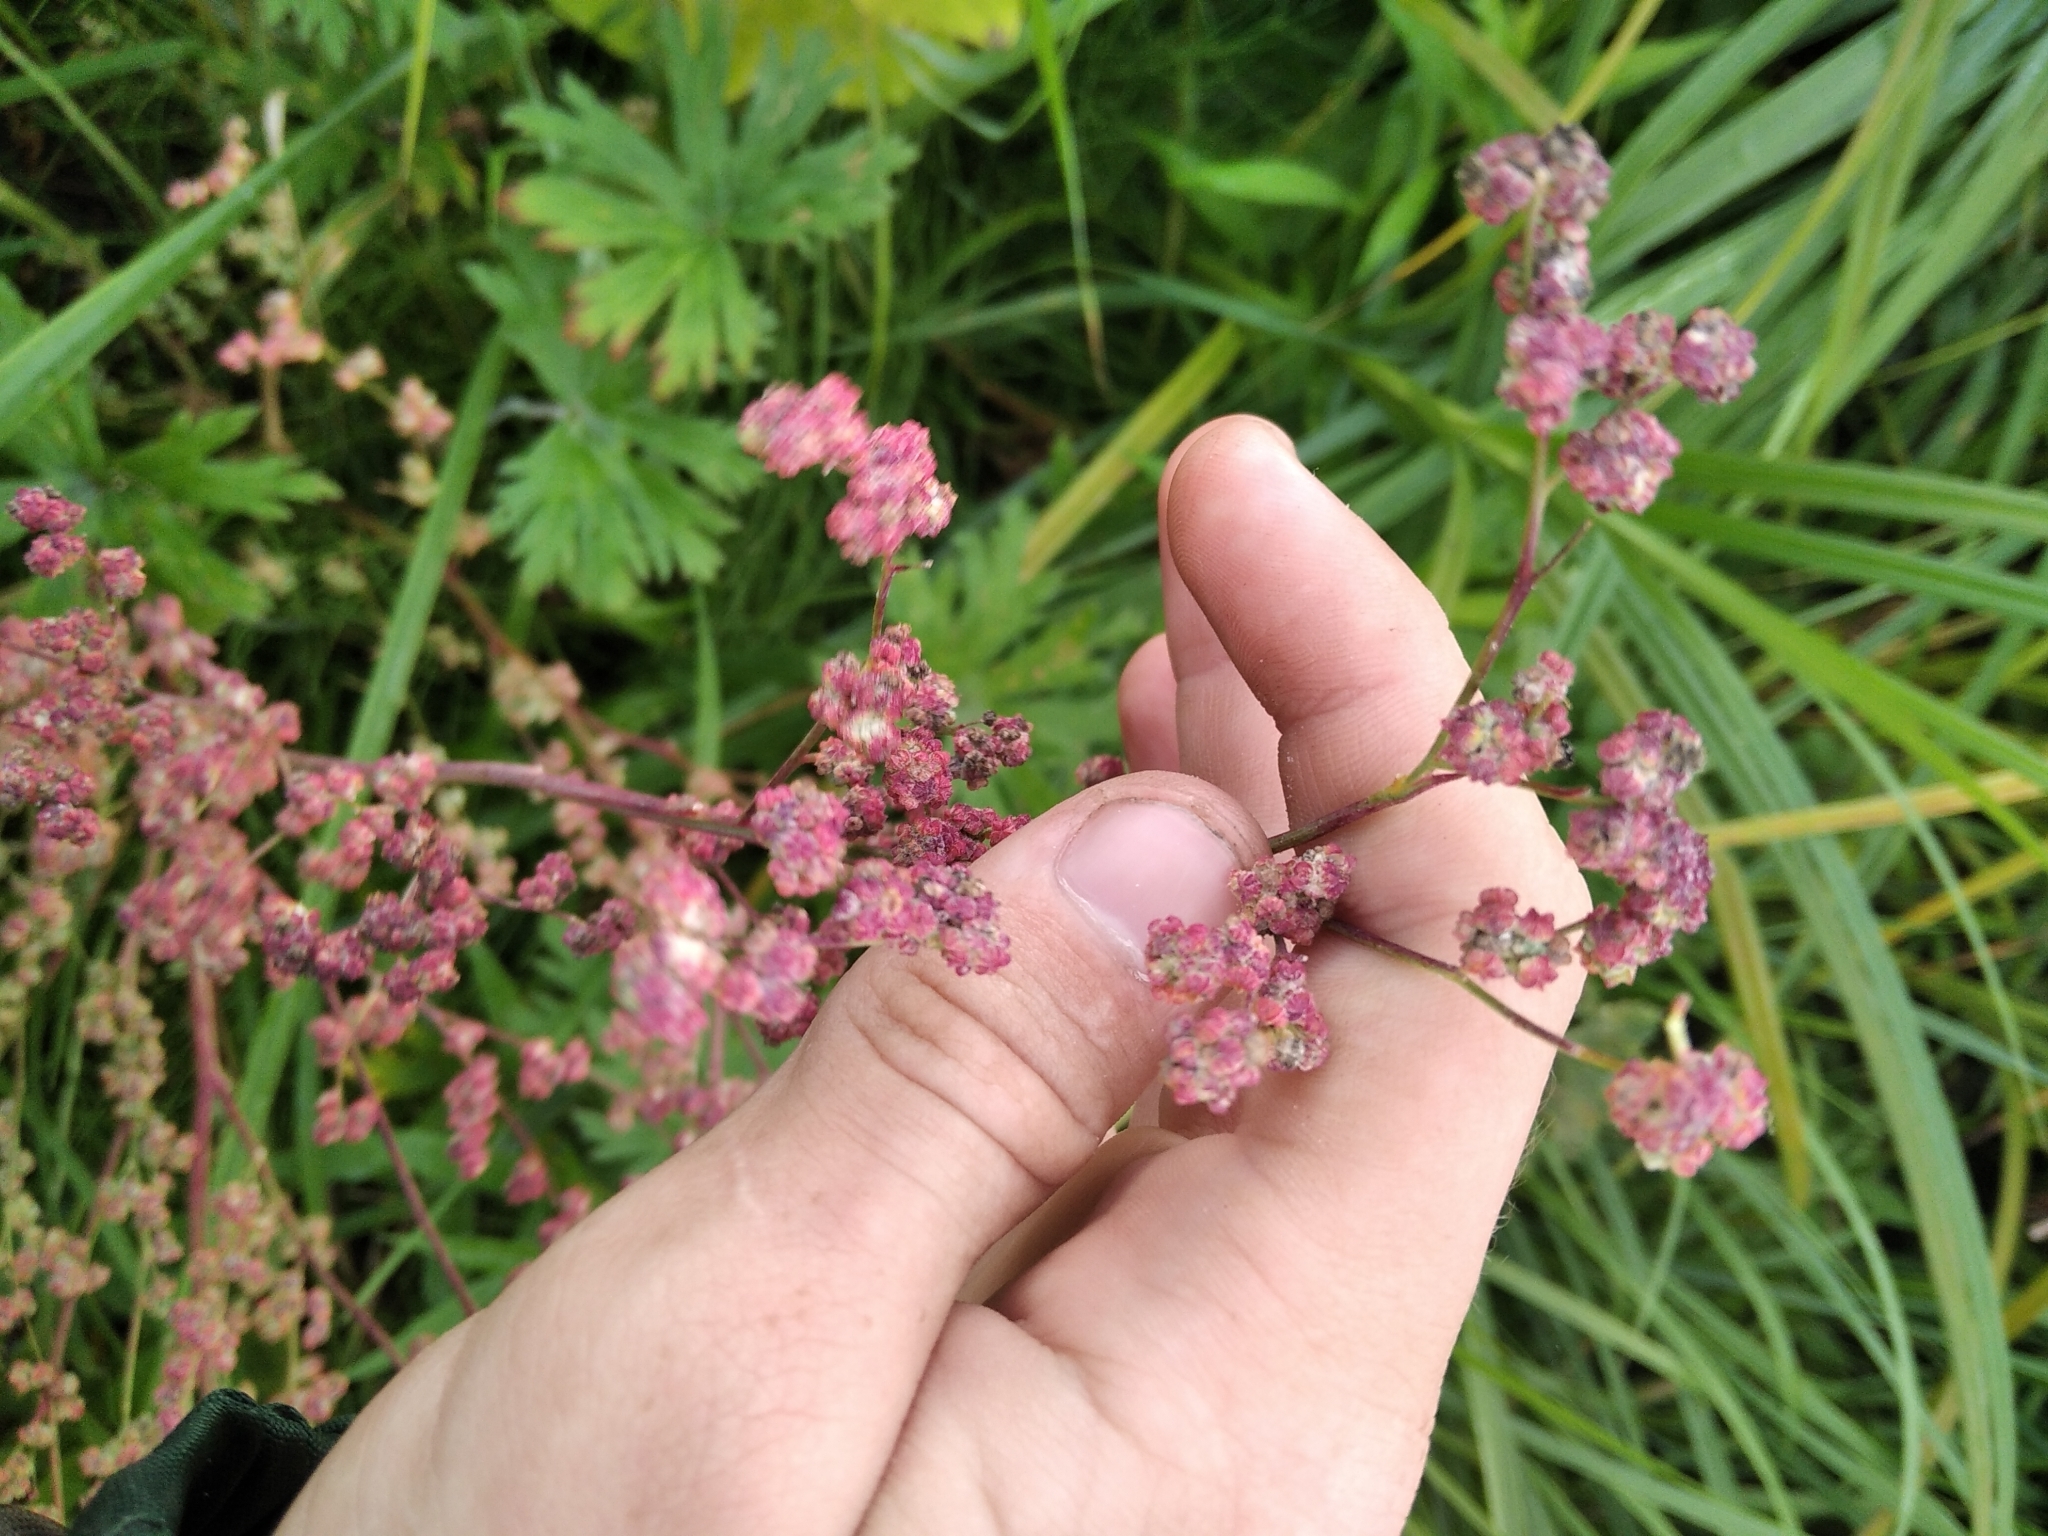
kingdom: Plantae
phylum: Tracheophyta
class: Magnoliopsida
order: Caryophyllales
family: Amaranthaceae
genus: Chenopodium
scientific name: Chenopodium album
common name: Fat-hen
